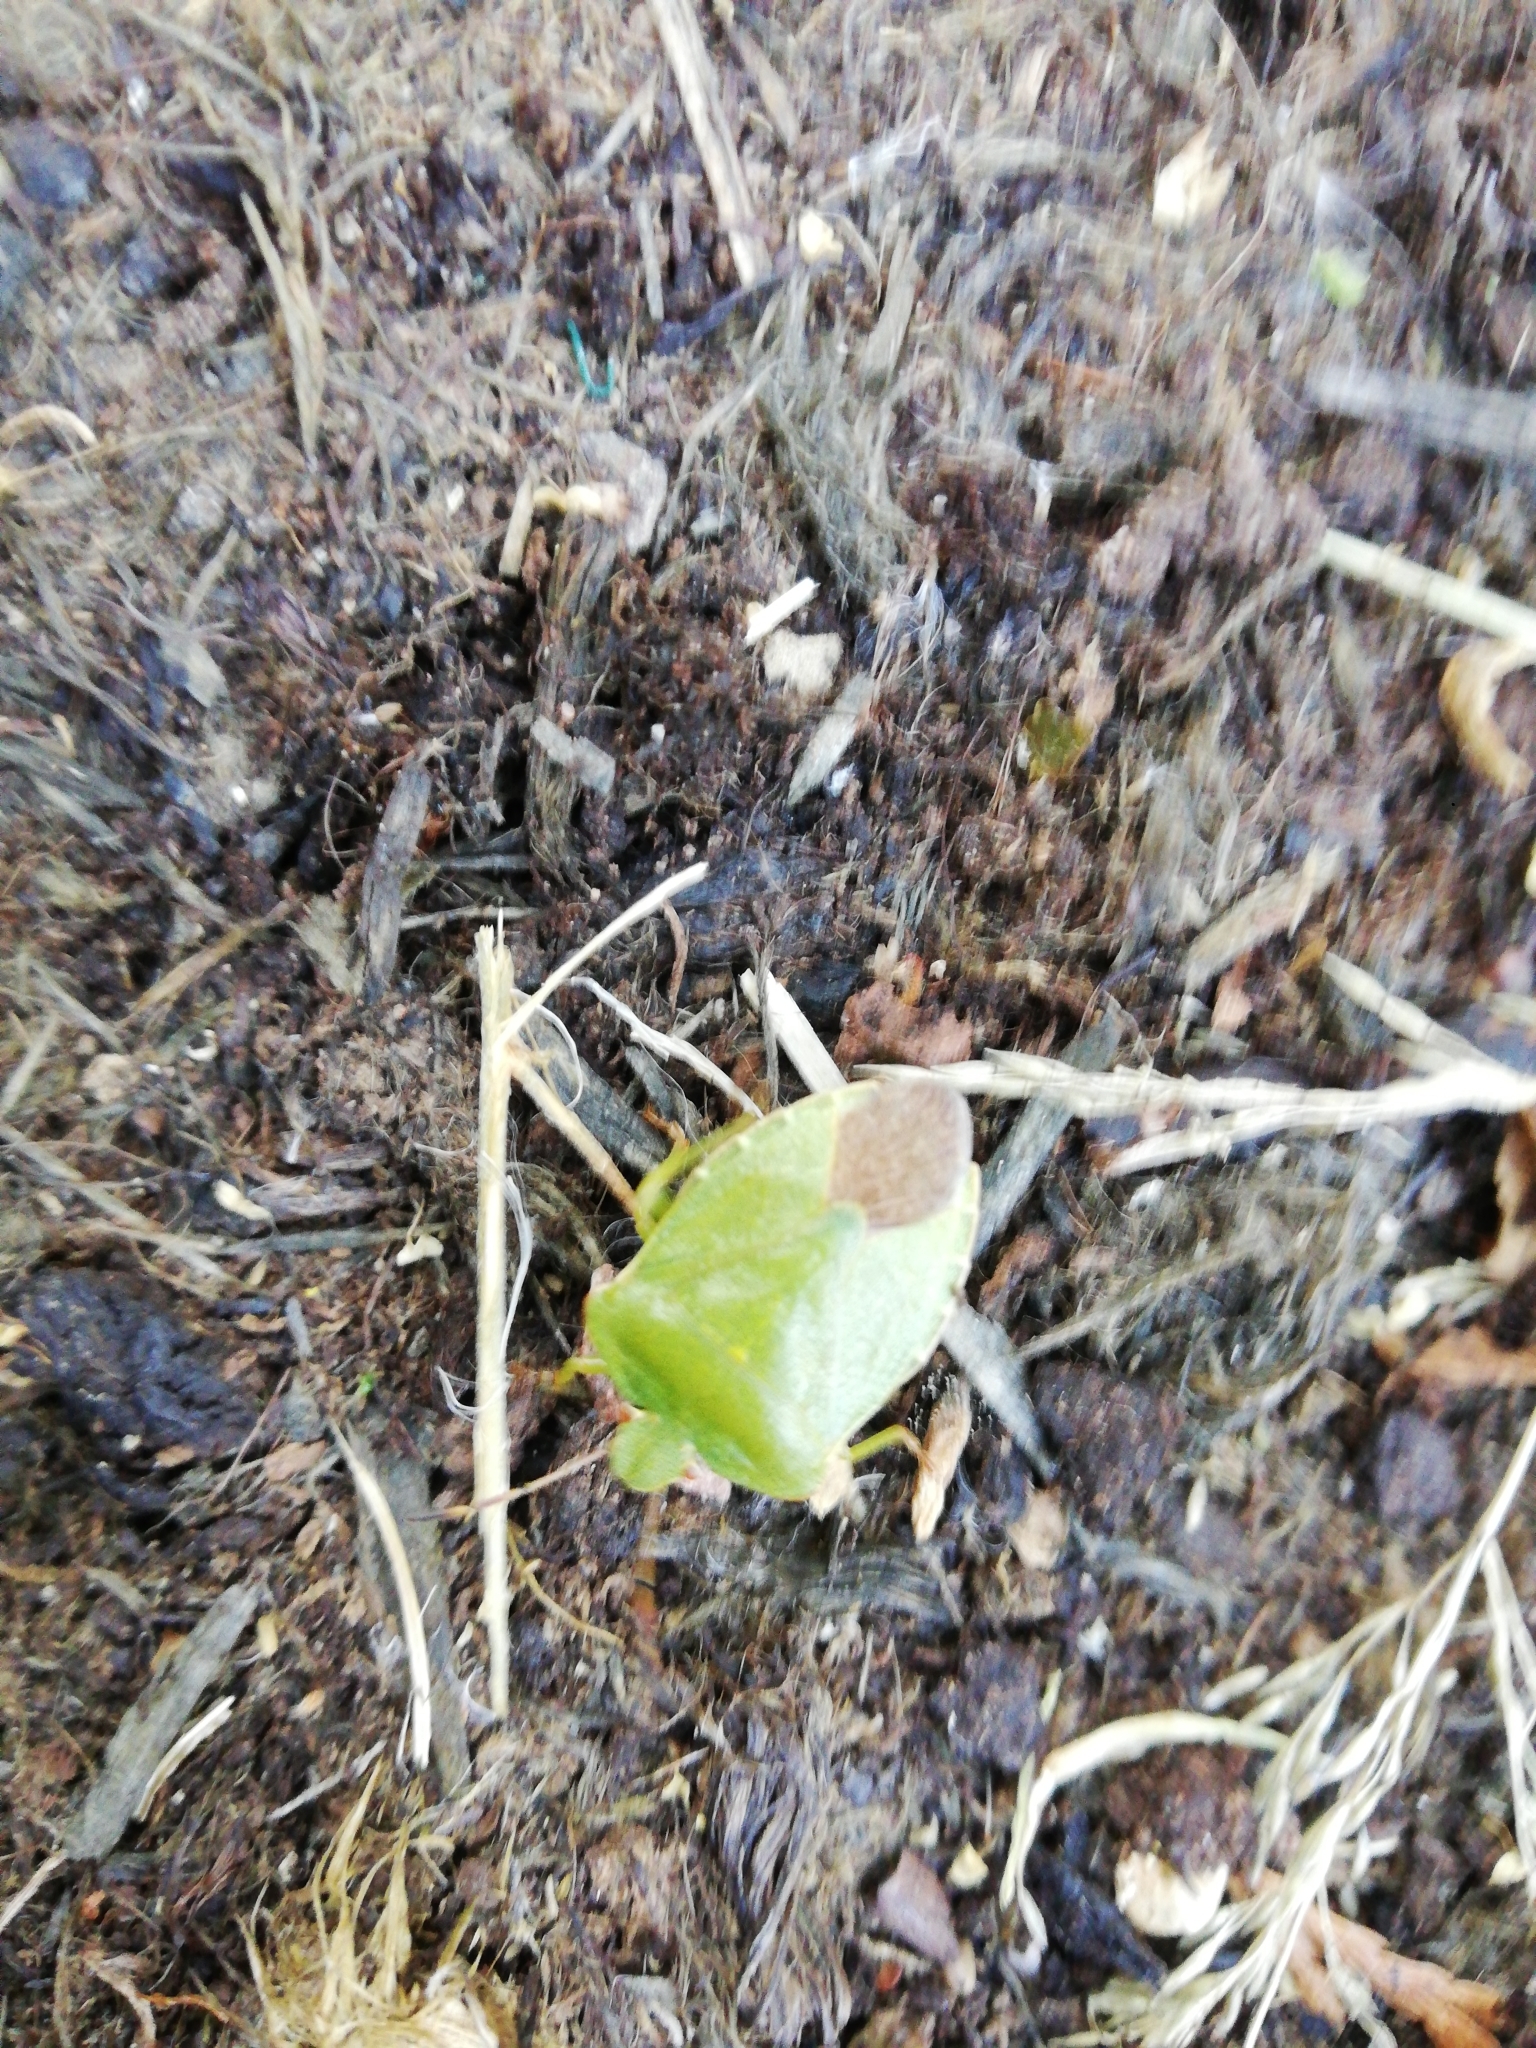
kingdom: Animalia
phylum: Arthropoda
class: Insecta
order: Hemiptera
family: Pentatomidae
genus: Palomena
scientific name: Palomena prasina
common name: Green shieldbug
